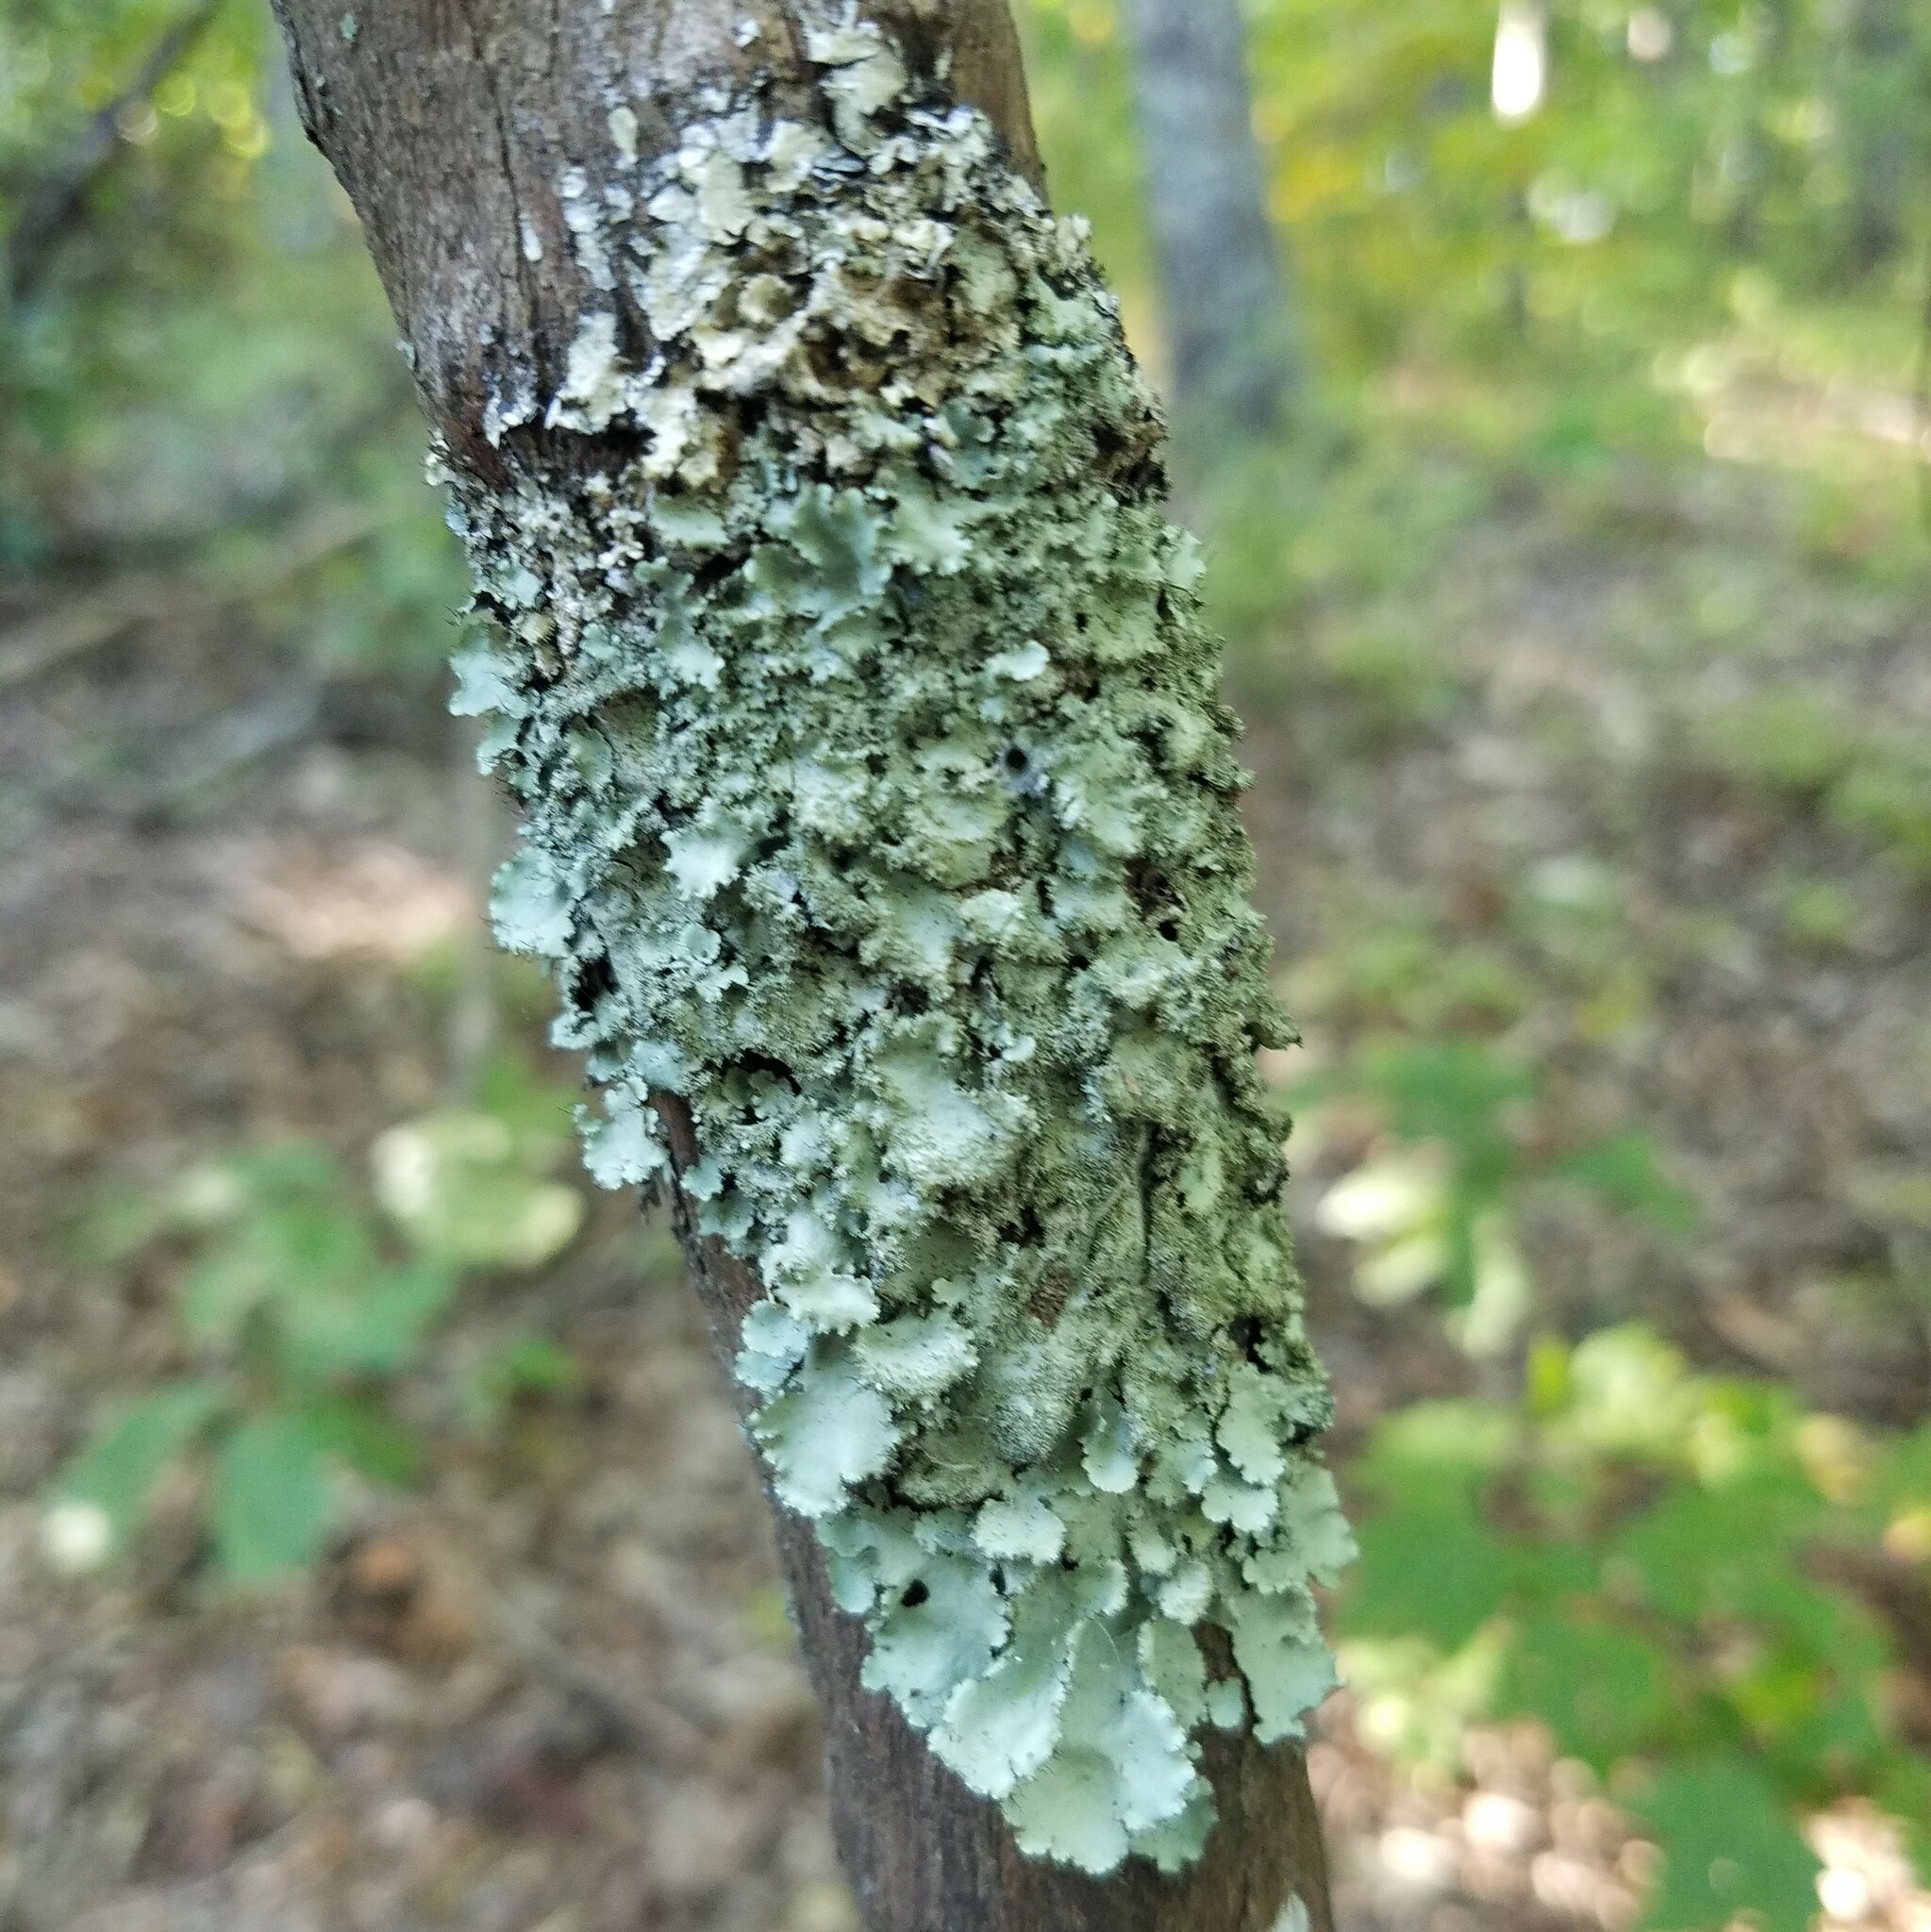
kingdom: Fungi
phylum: Ascomycota
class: Lecanoromycetes
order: Lecanorales
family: Parmeliaceae
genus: Parmotrema
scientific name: Parmotrema crinitum
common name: Salted ruffle lichen
